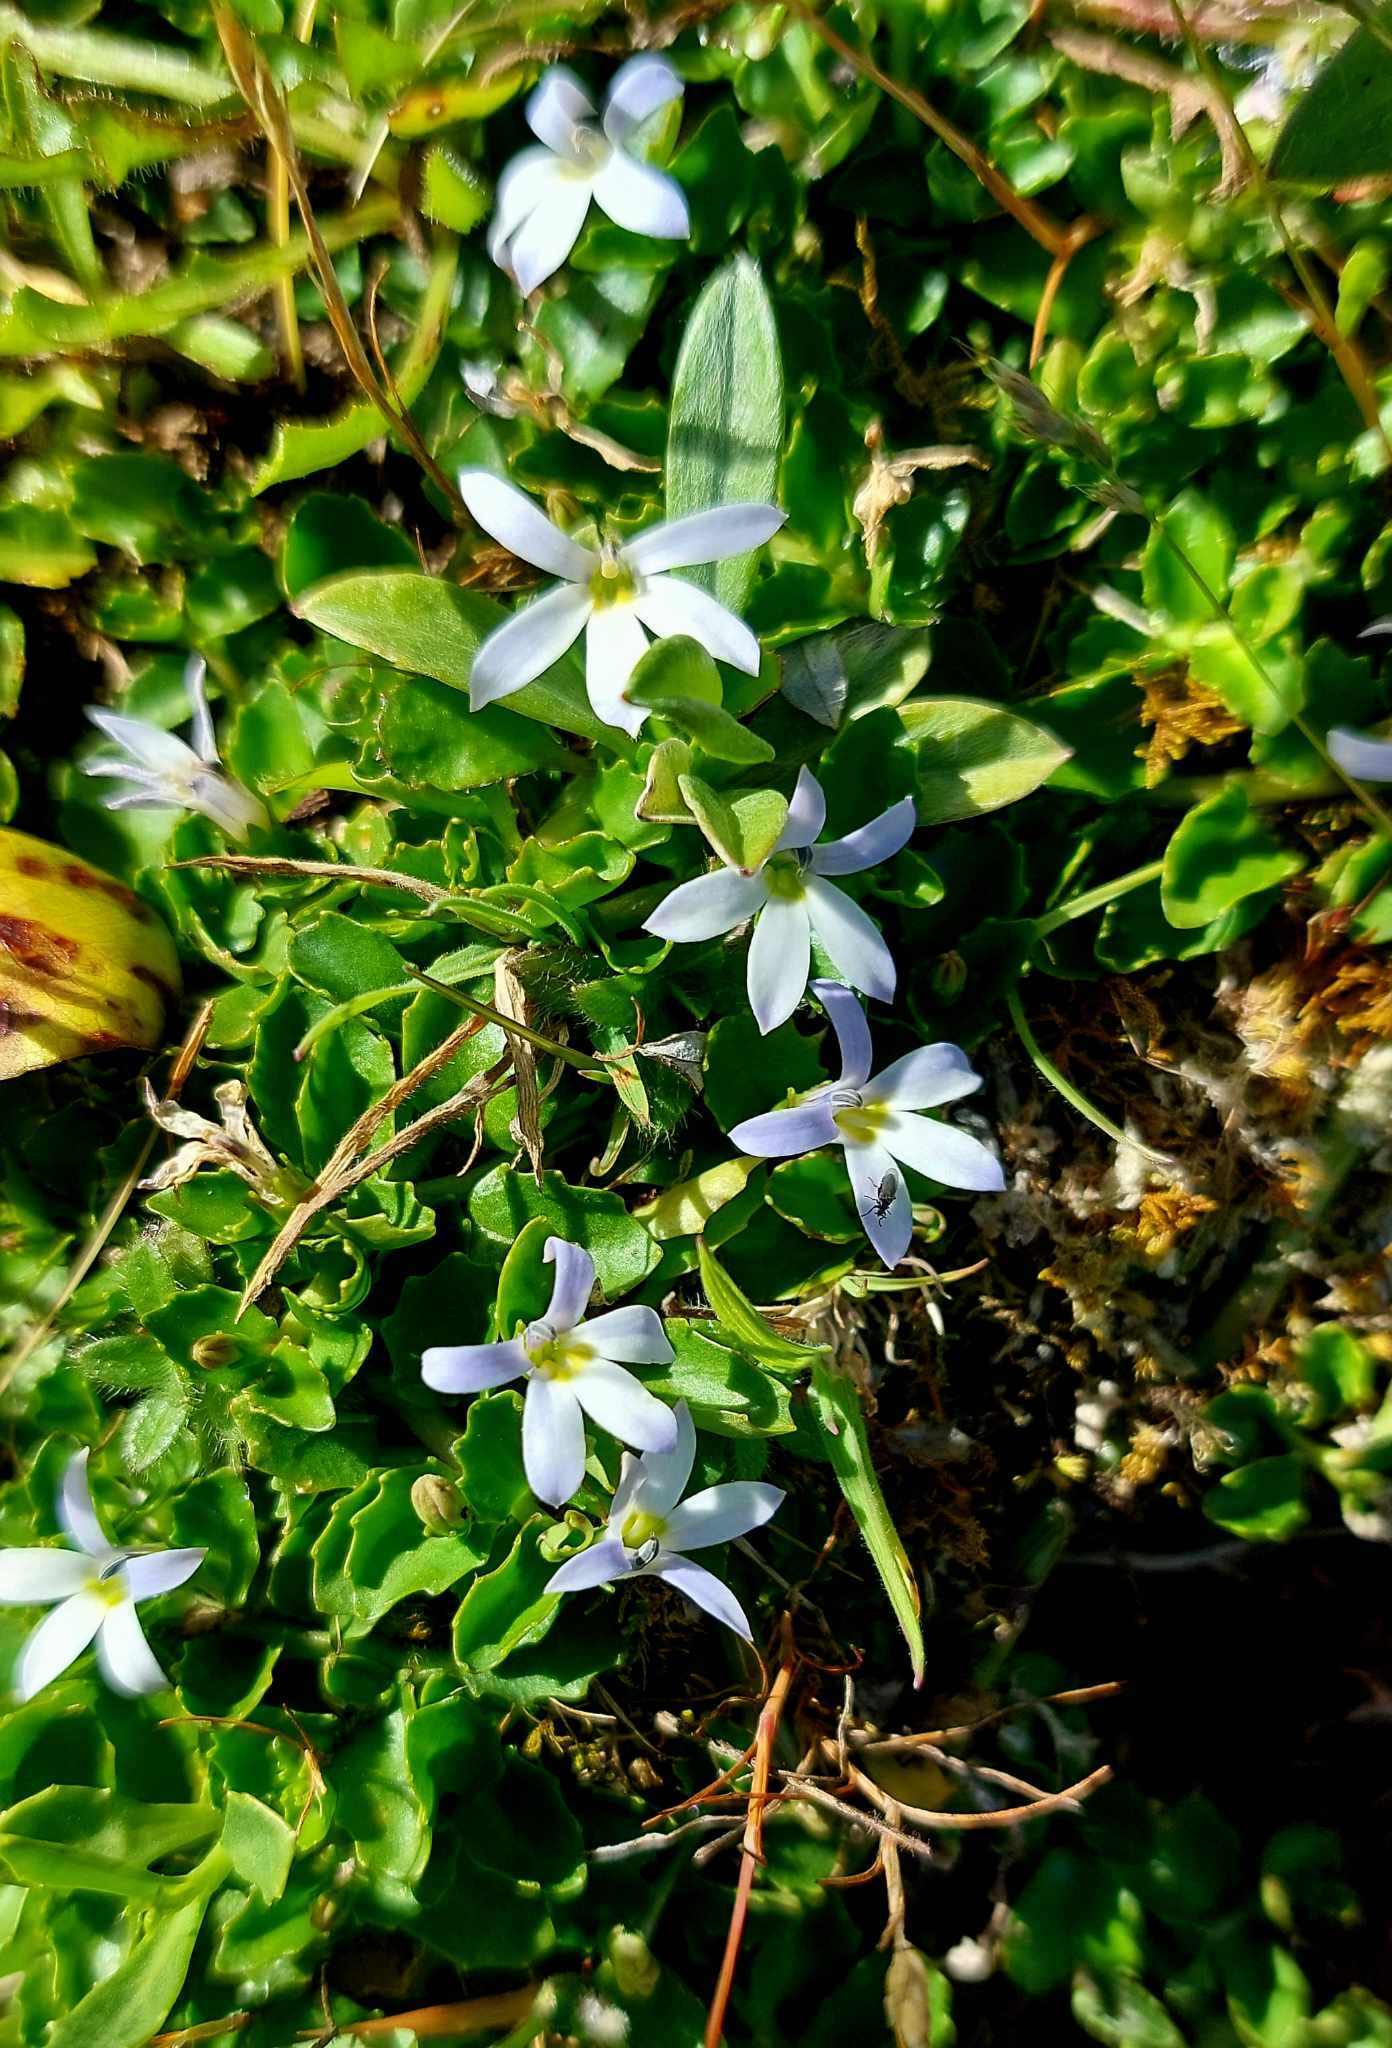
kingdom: Plantae
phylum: Tracheophyta
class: Magnoliopsida
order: Asterales
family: Campanulaceae
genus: Lobelia
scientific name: Lobelia arenaria
